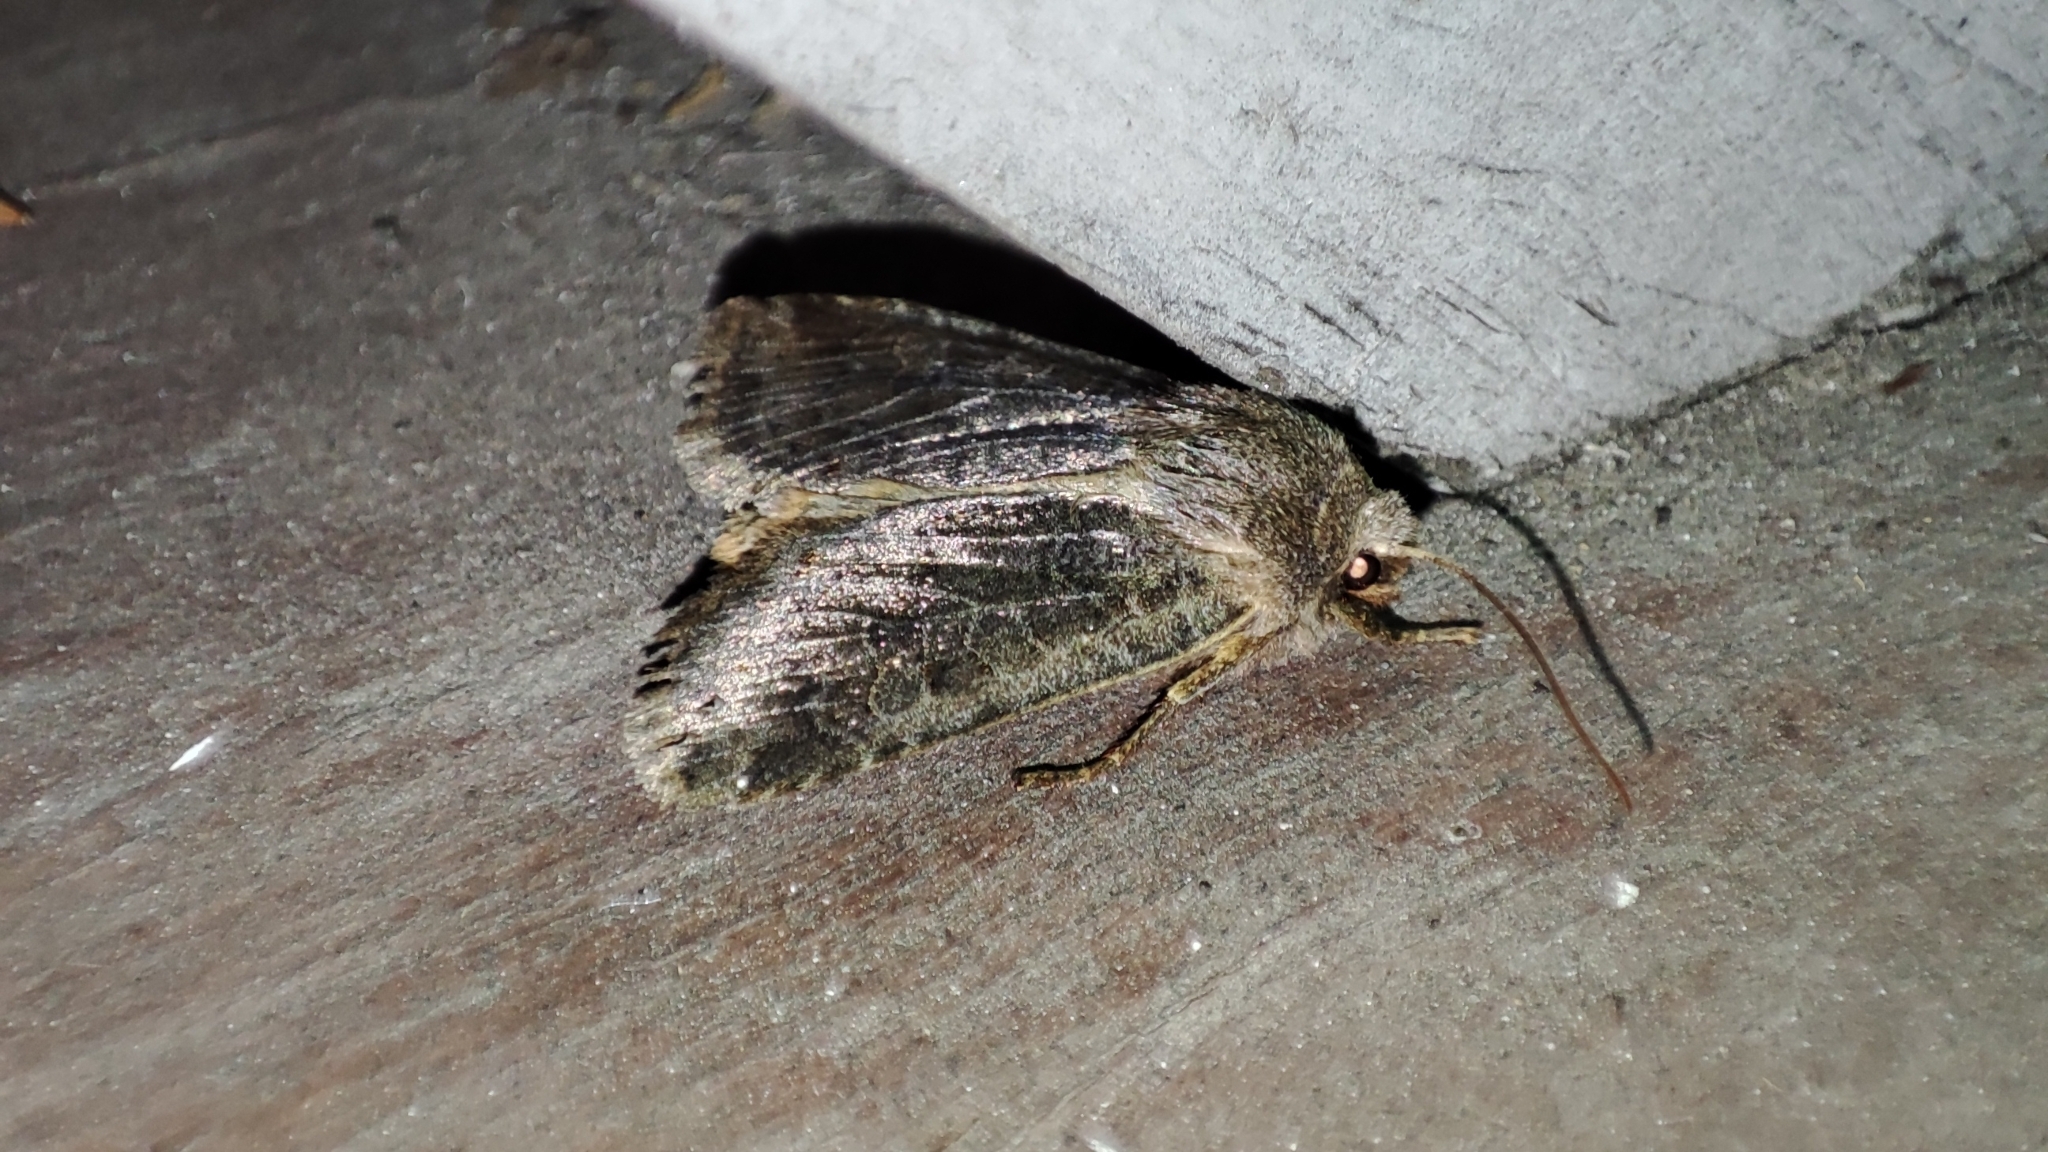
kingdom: Animalia
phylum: Arthropoda
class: Insecta
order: Lepidoptera
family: Noctuidae
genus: Conistra
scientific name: Conistra vaccinii
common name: Chestnut
